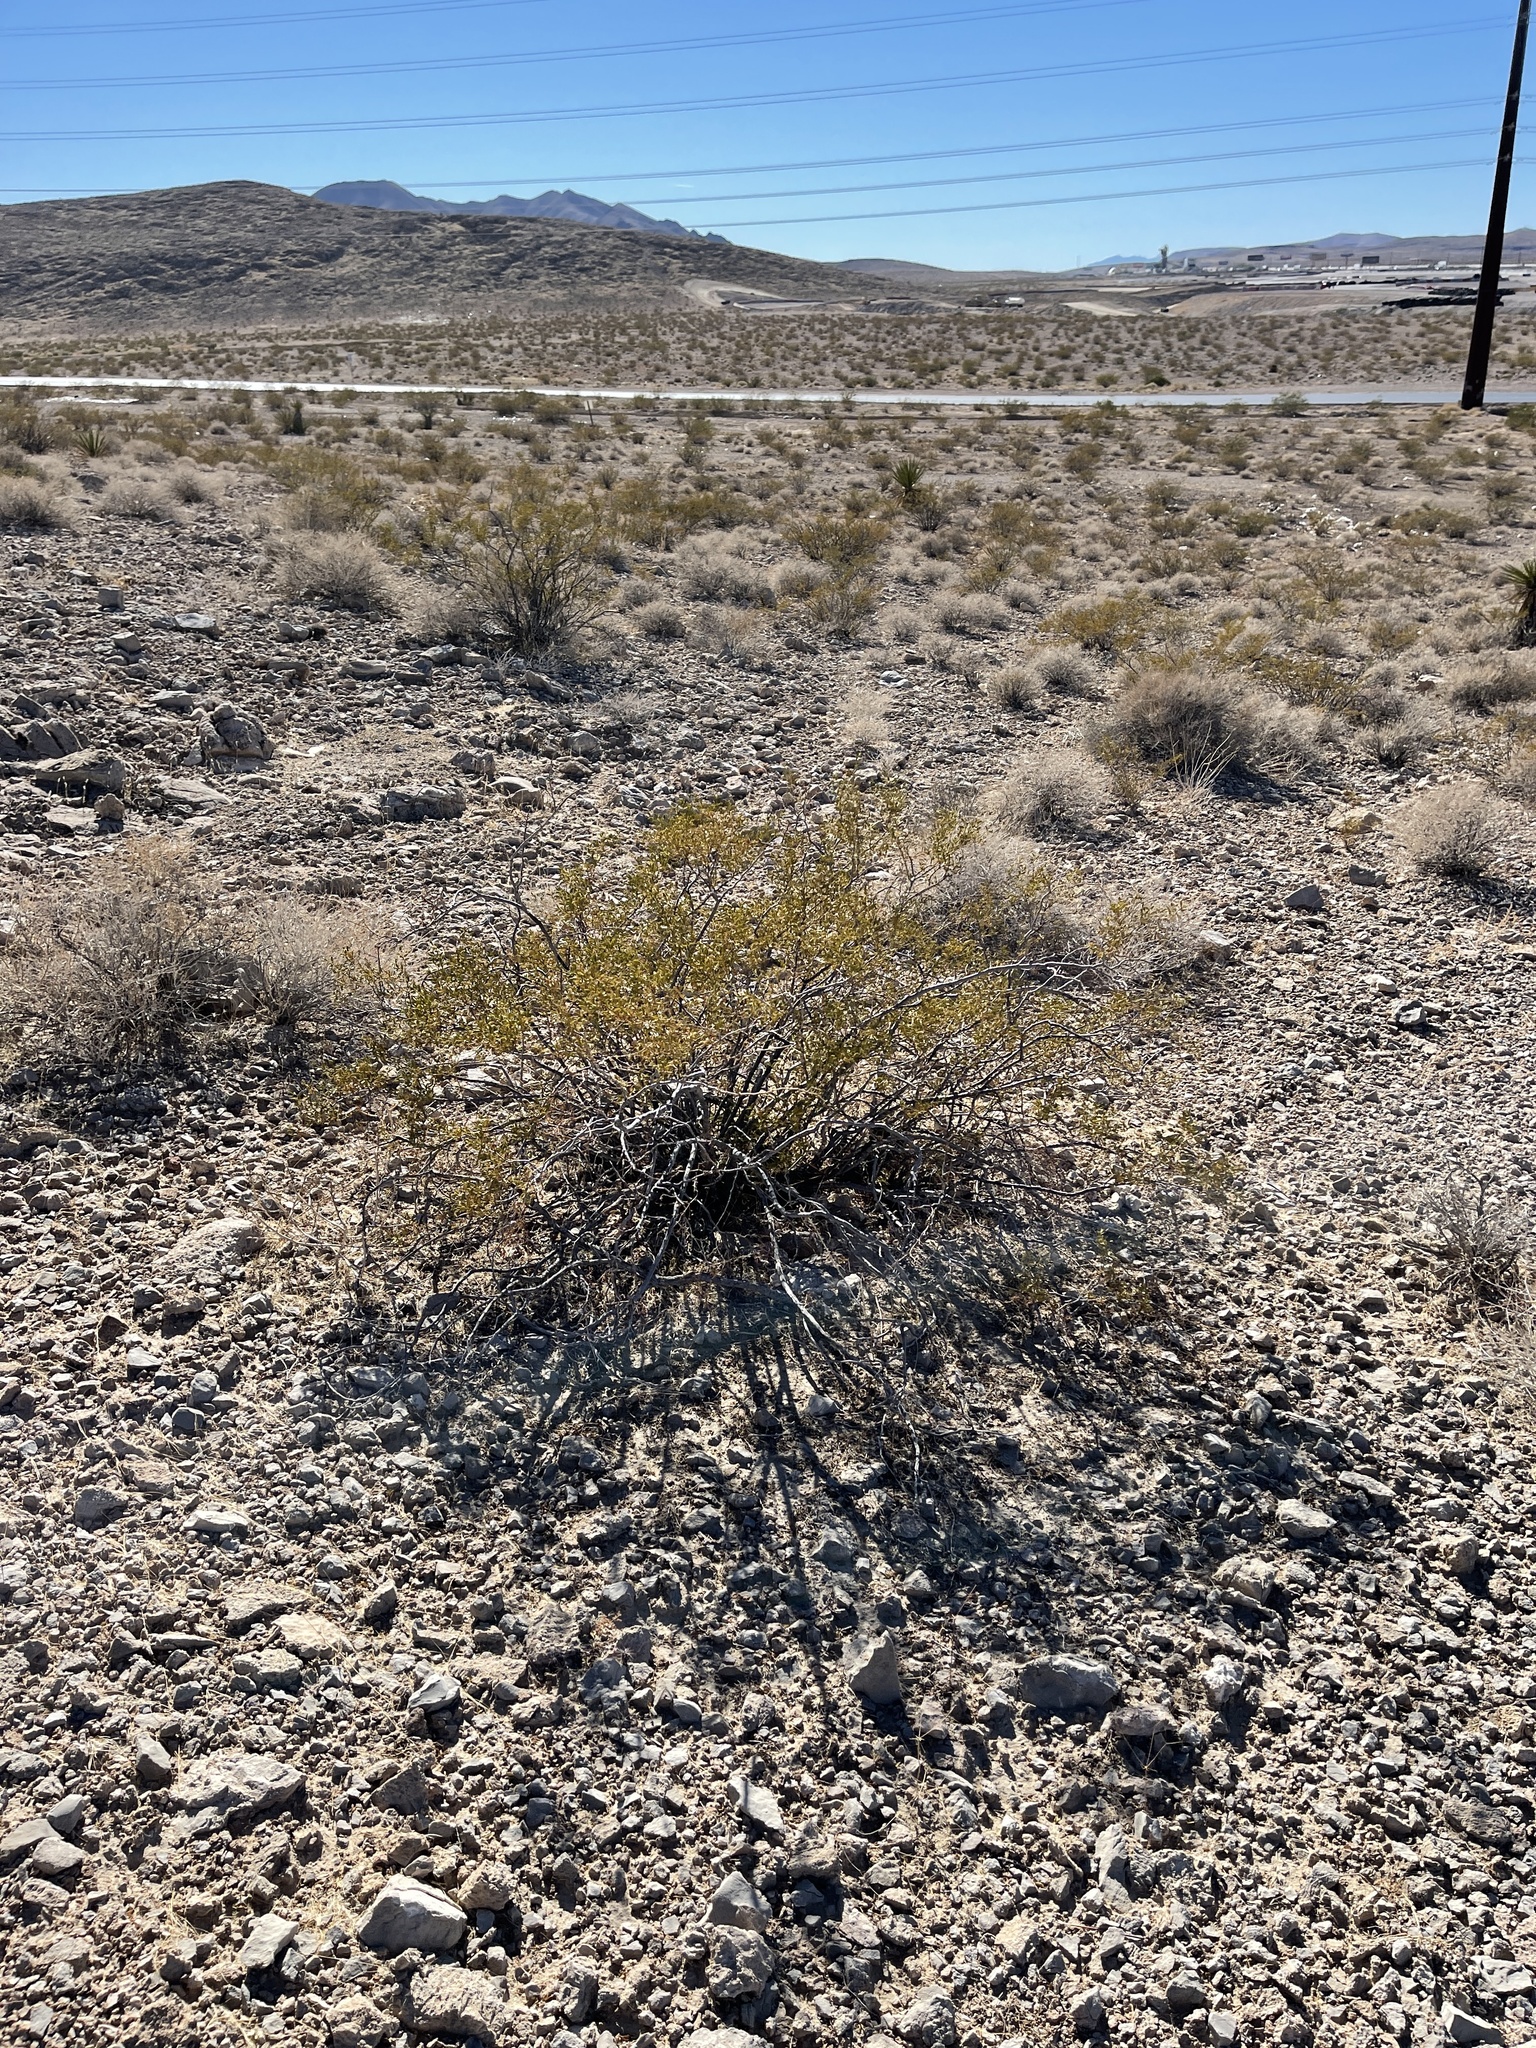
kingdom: Plantae
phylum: Tracheophyta
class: Magnoliopsida
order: Zygophyllales
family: Zygophyllaceae
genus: Larrea
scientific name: Larrea tridentata
